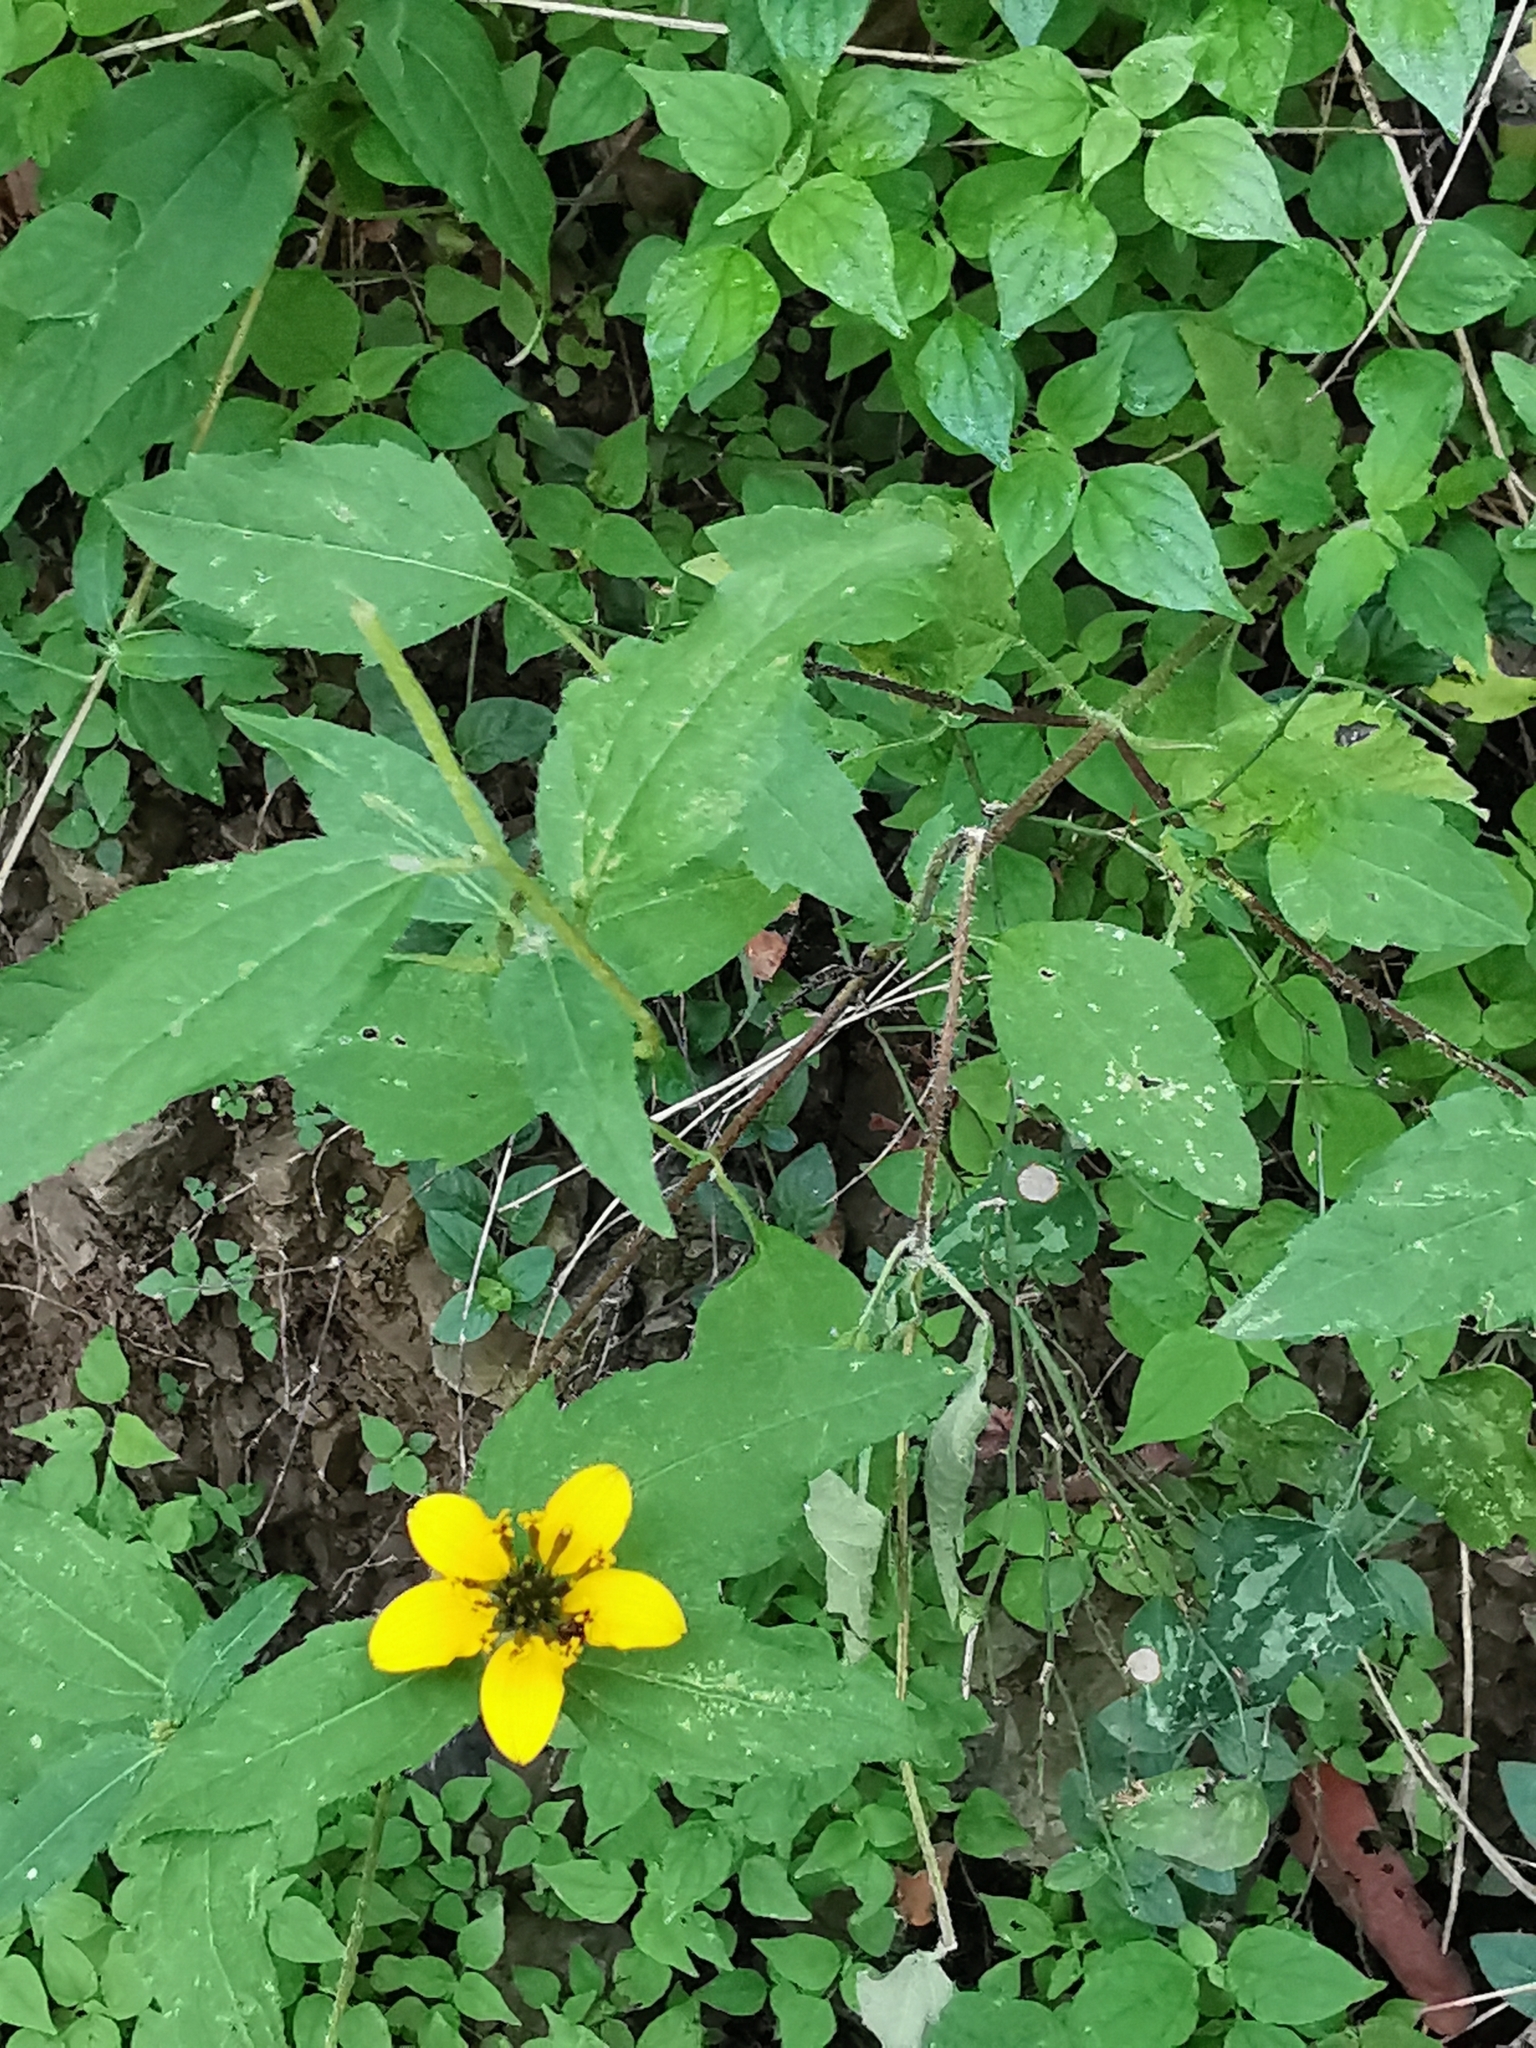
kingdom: Plantae
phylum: Tracheophyta
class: Magnoliopsida
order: Asterales
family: Asteraceae
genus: Sclerocarpus
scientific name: Sclerocarpus uniserialis
